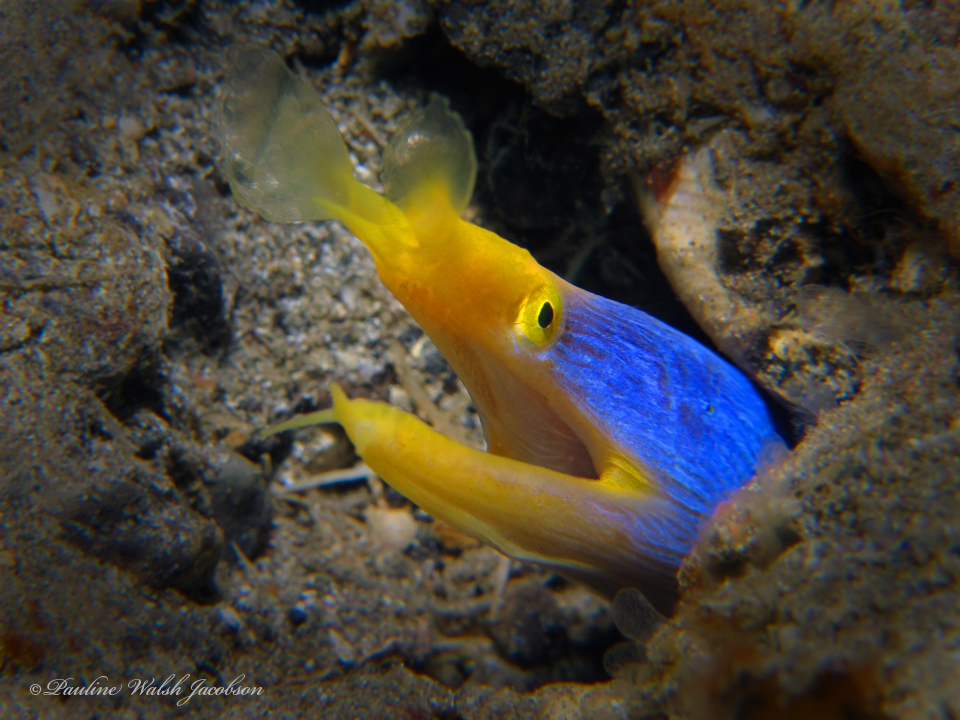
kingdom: Animalia
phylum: Chordata
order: Anguilliformes
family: Muraenidae
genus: Rhinomuraena
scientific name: Rhinomuraena quaesita
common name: Ribbon eel
